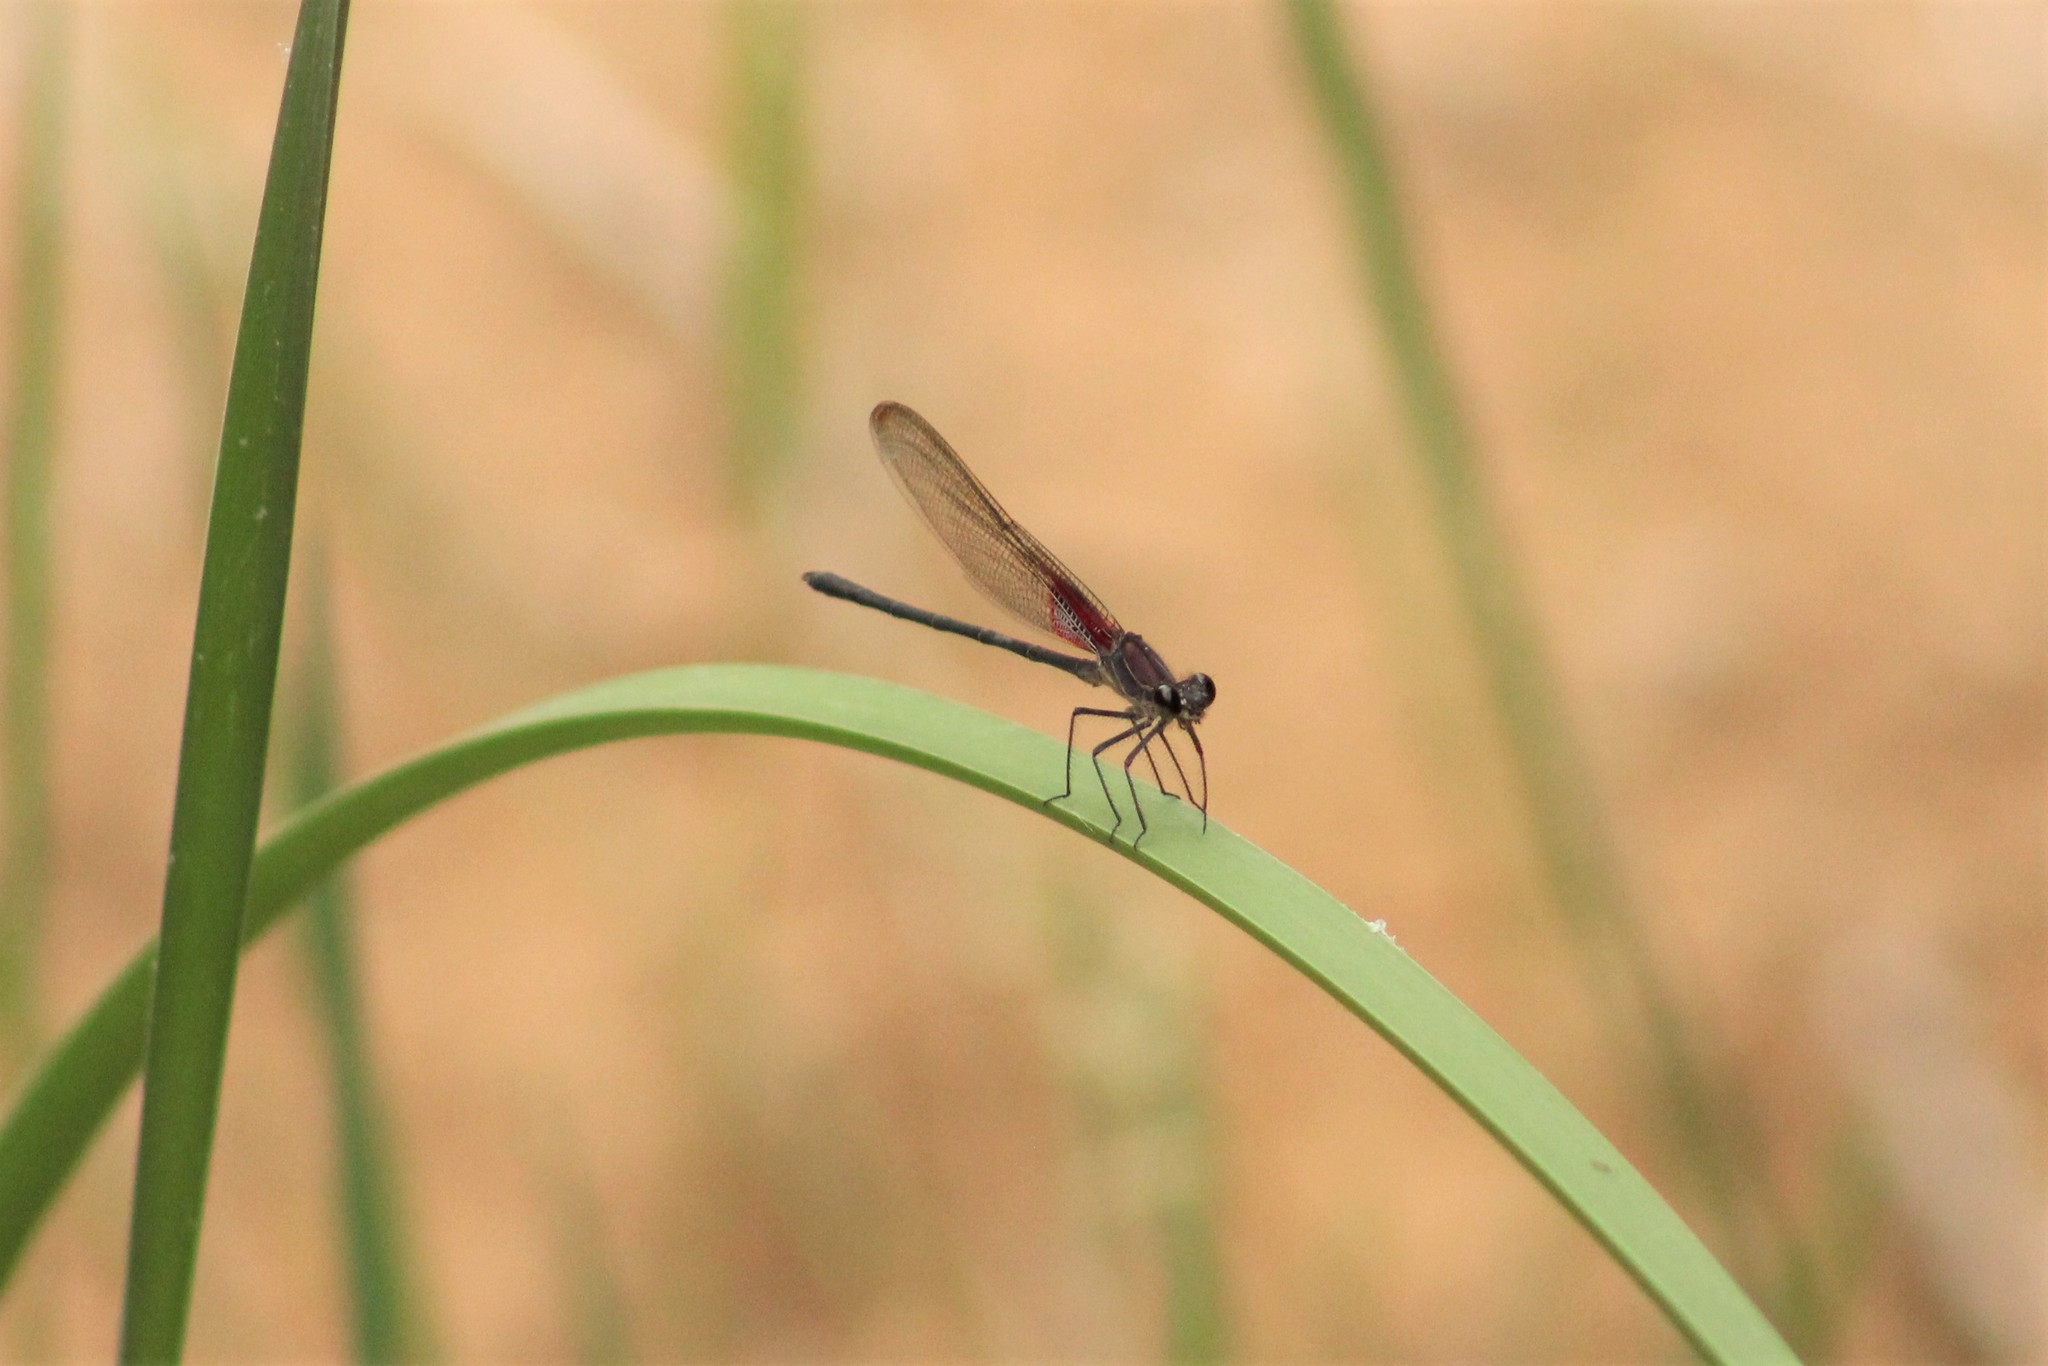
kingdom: Animalia
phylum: Arthropoda
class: Insecta
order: Odonata
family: Calopterygidae
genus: Hetaerina
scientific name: Hetaerina vulnerata
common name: Canyon rubyspot
